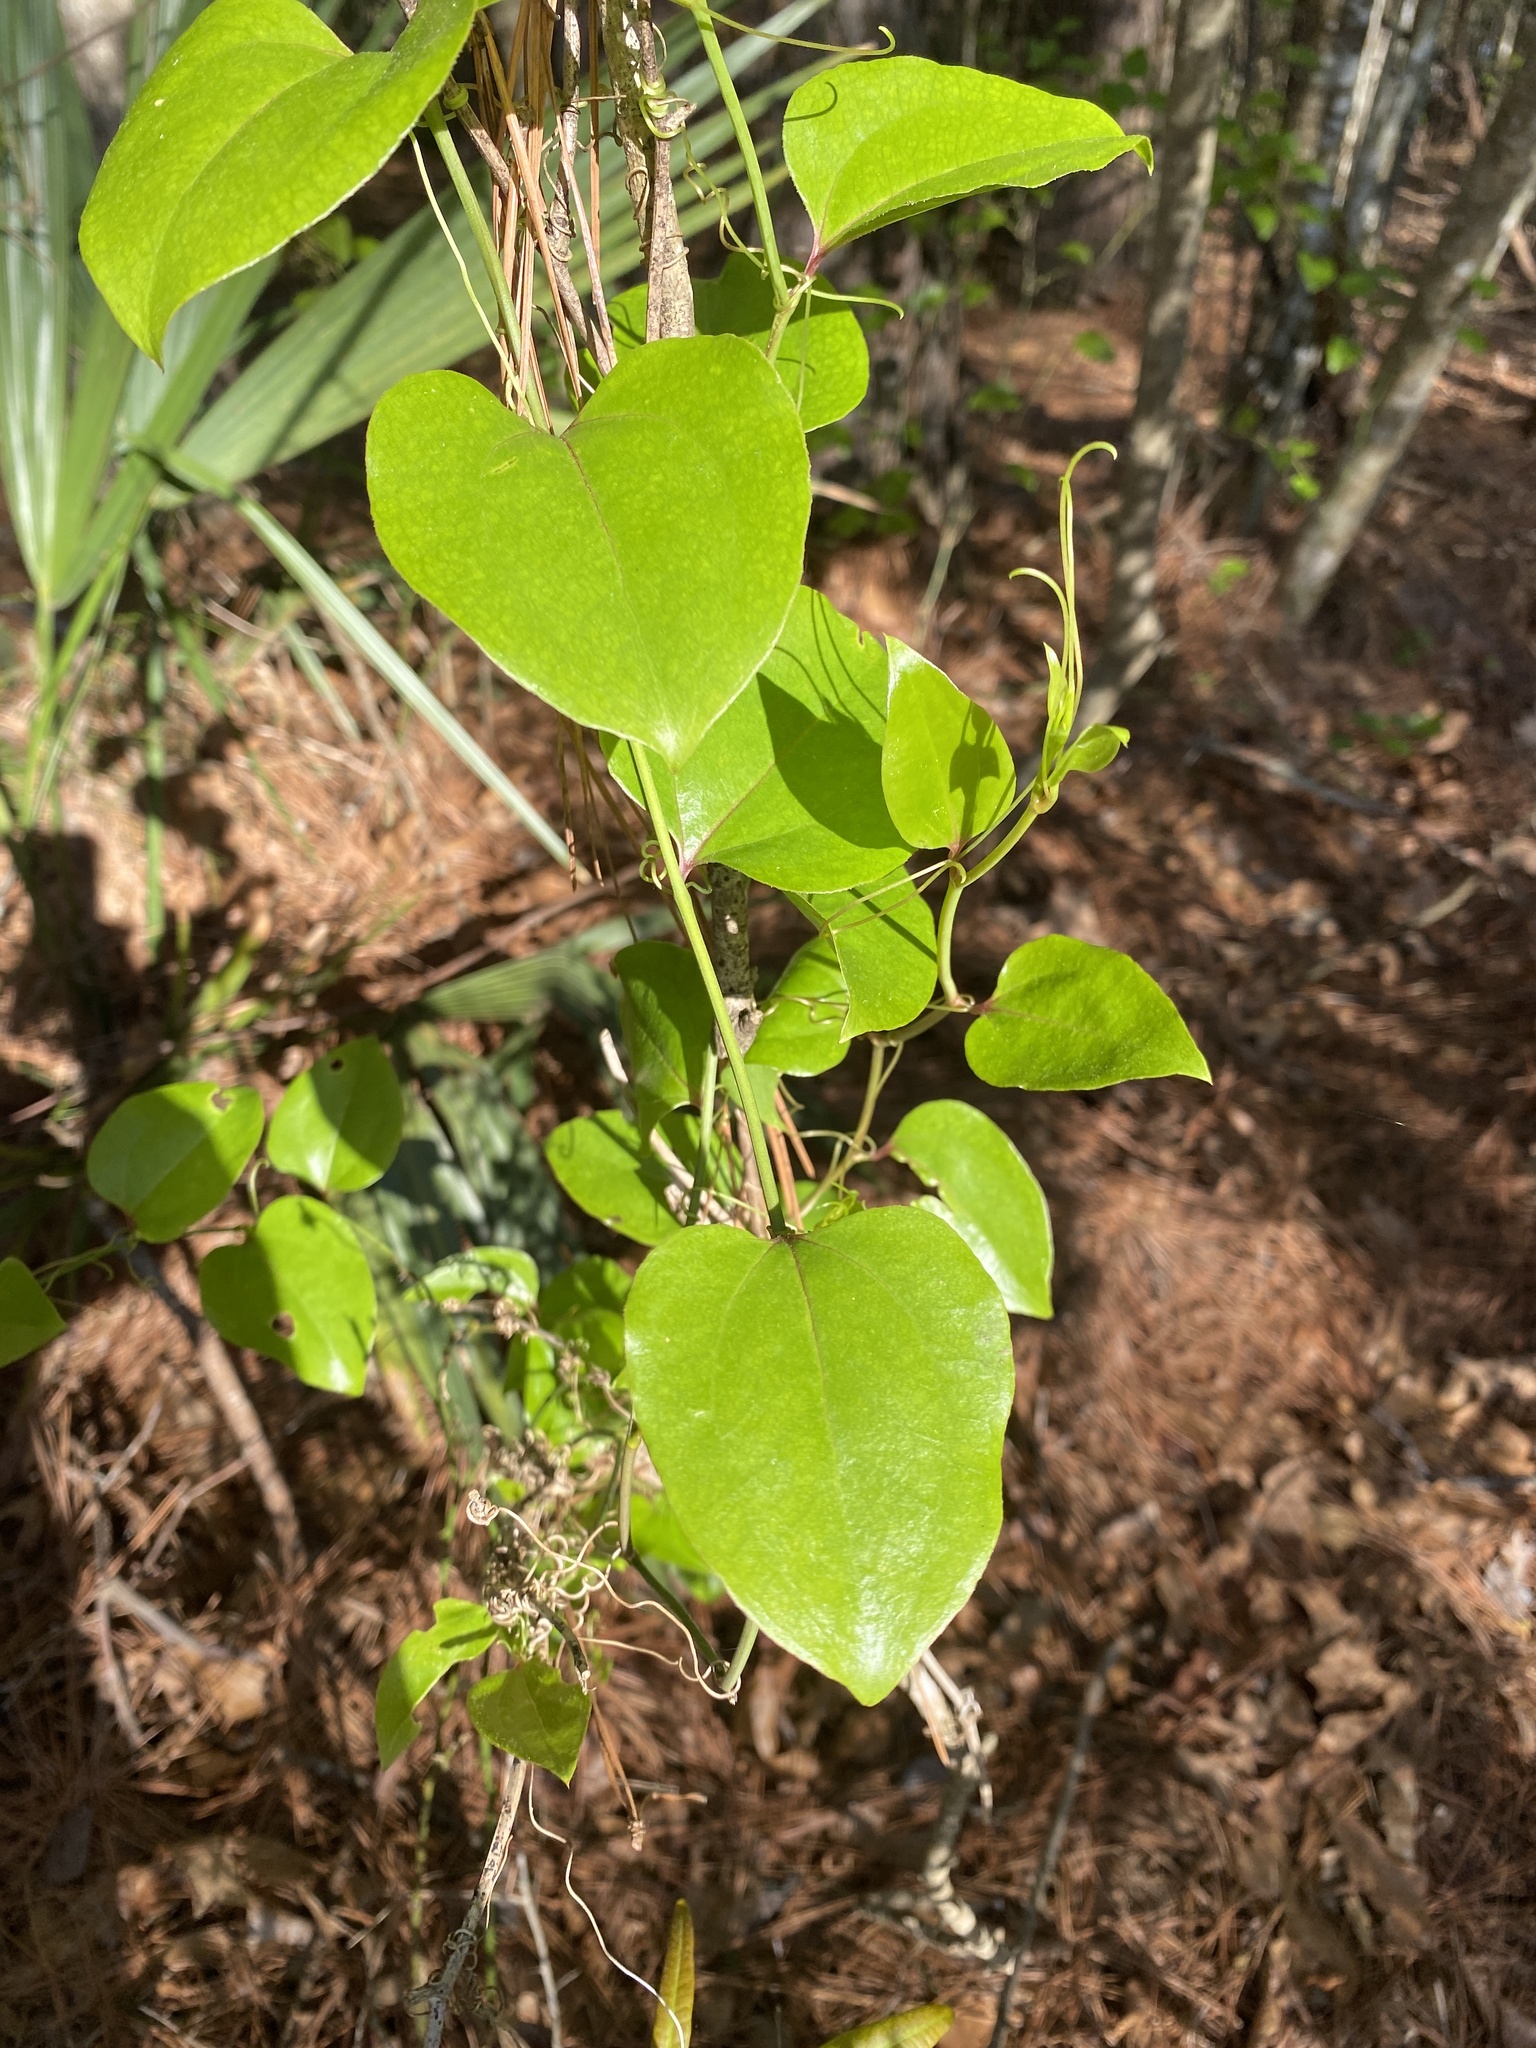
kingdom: Plantae
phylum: Tracheophyta
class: Liliopsida
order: Liliales
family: Smilacaceae
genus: Smilax
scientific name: Smilax rotundifolia
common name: Bullbriar
